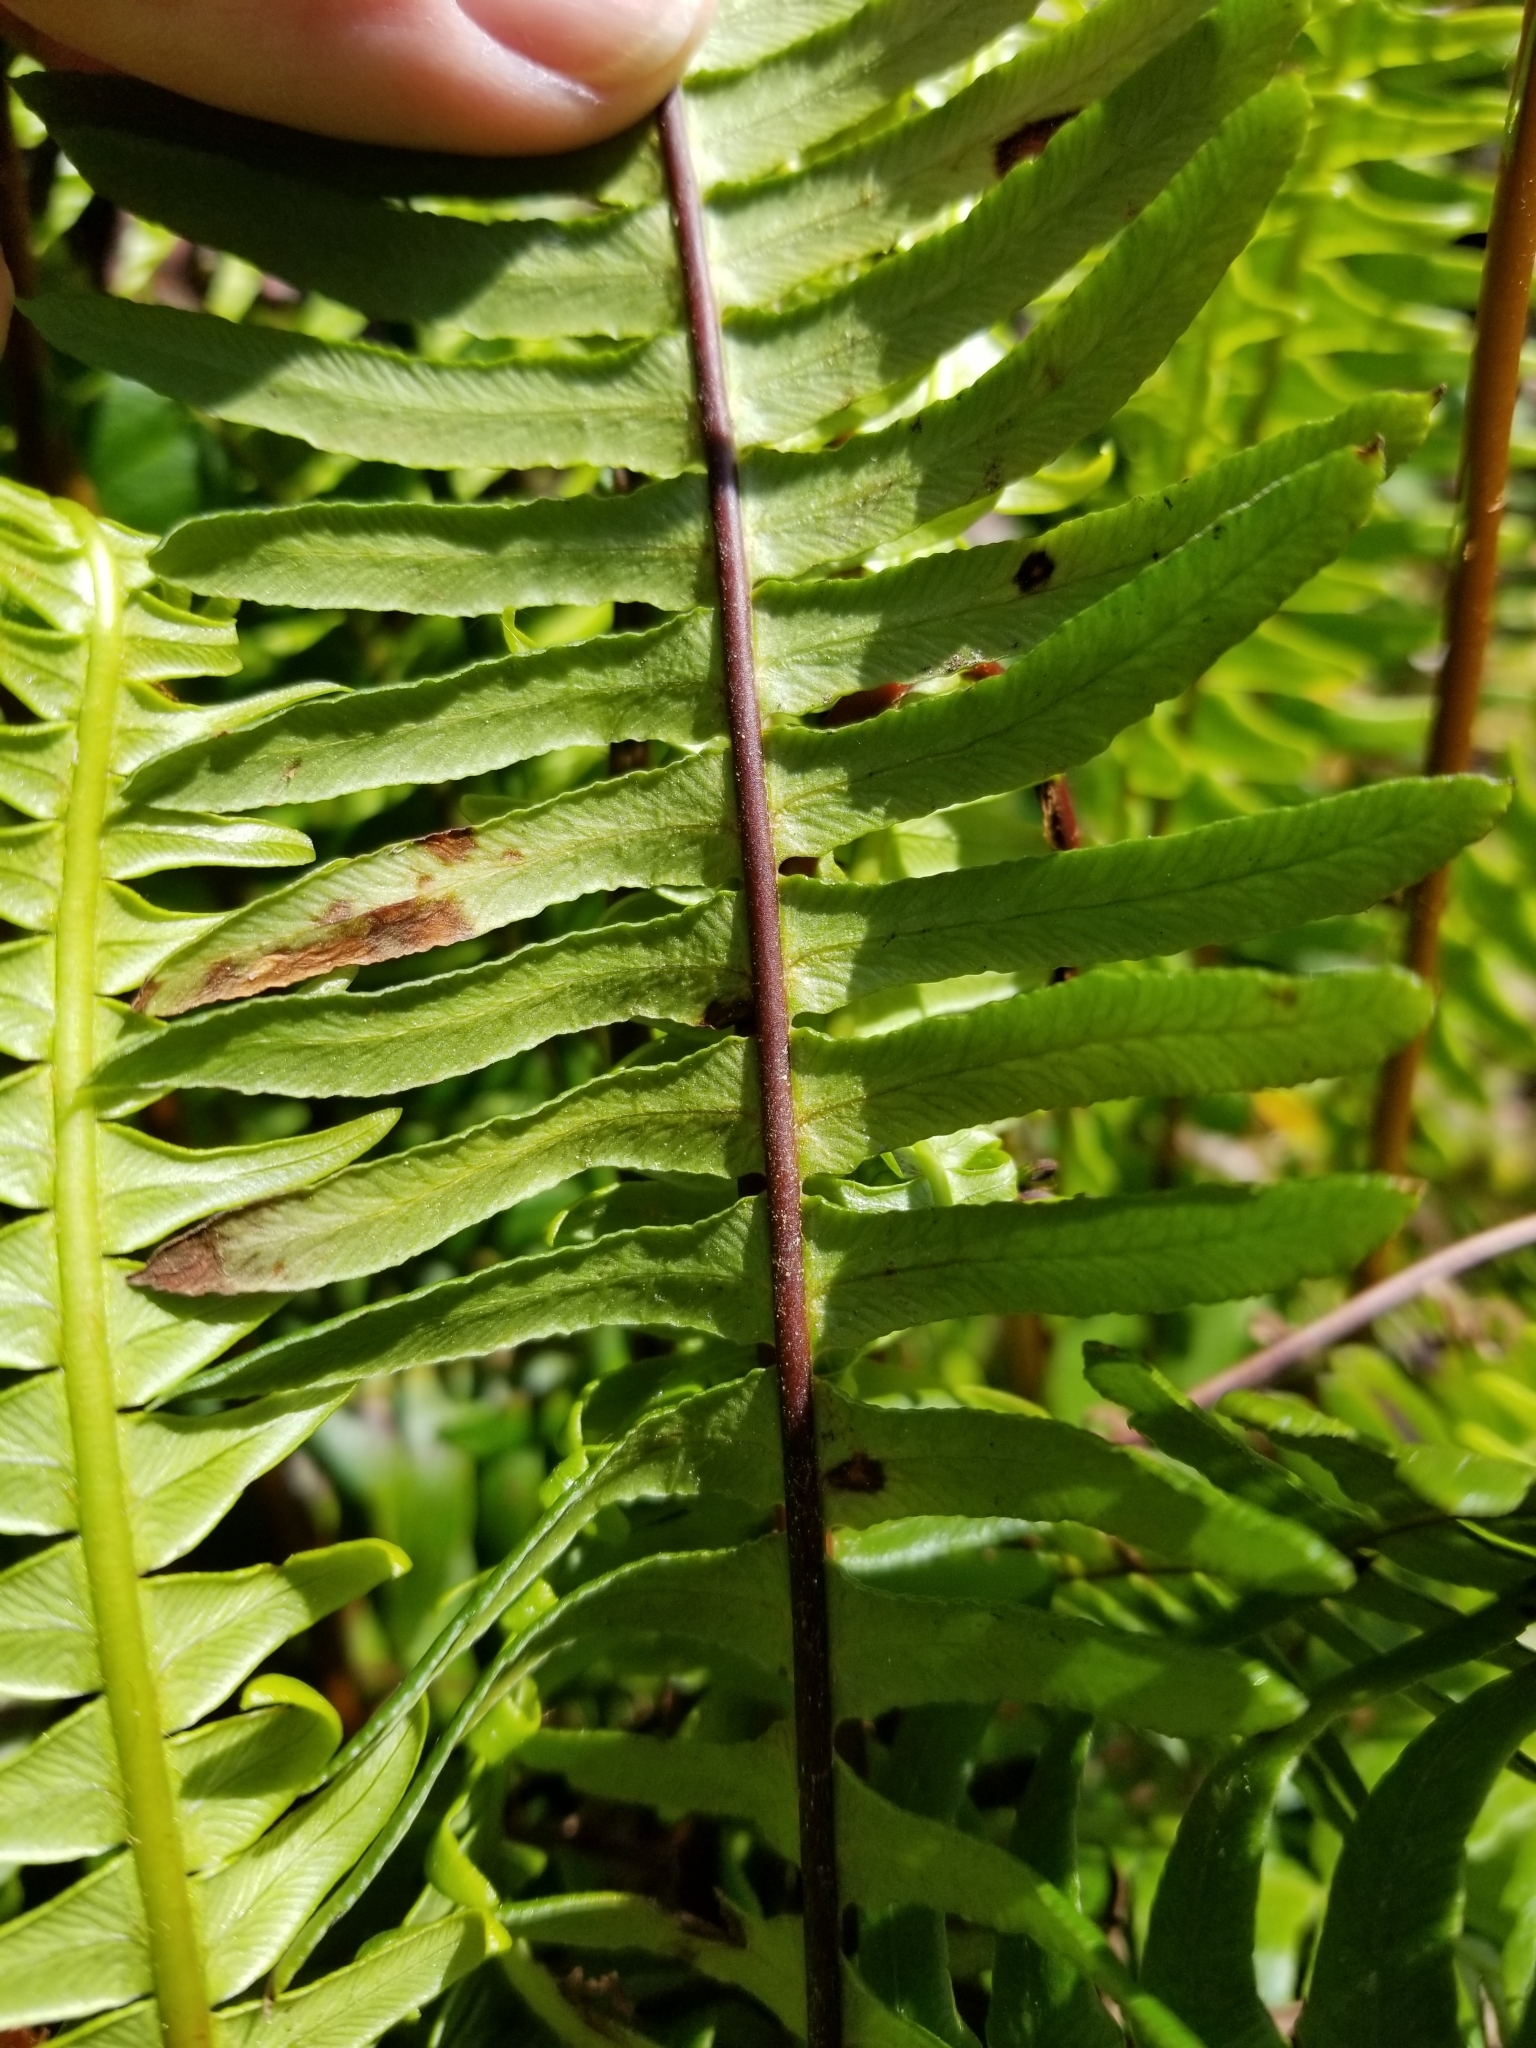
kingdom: Plantae
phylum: Tracheophyta
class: Polypodiopsida
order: Polypodiales
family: Blechnaceae
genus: Struthiopteris
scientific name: Struthiopteris spicant
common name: Deer fern
